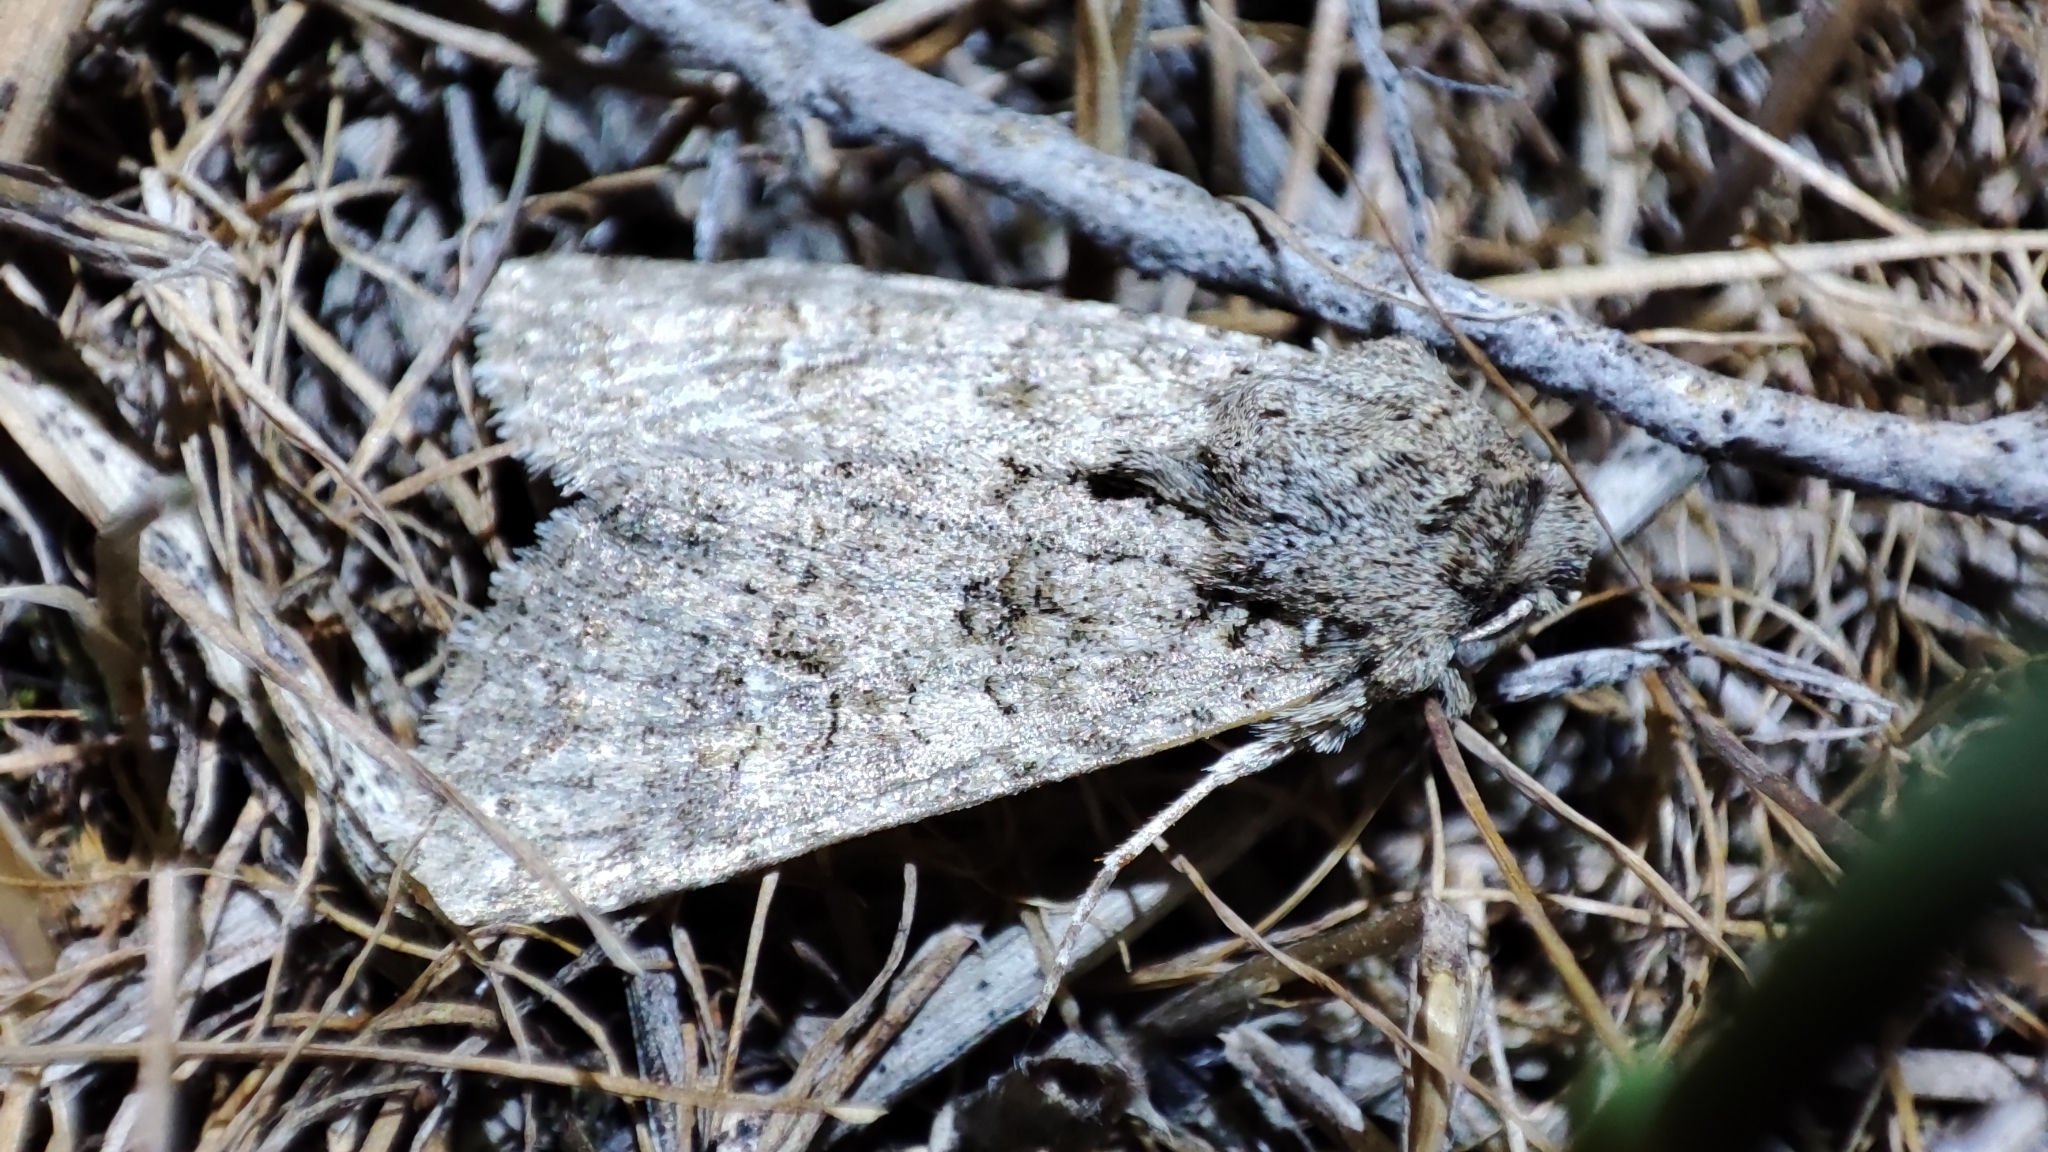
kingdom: Animalia
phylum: Arthropoda
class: Insecta
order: Lepidoptera
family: Noctuidae
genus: Anarta
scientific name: Anarta sabulorum
